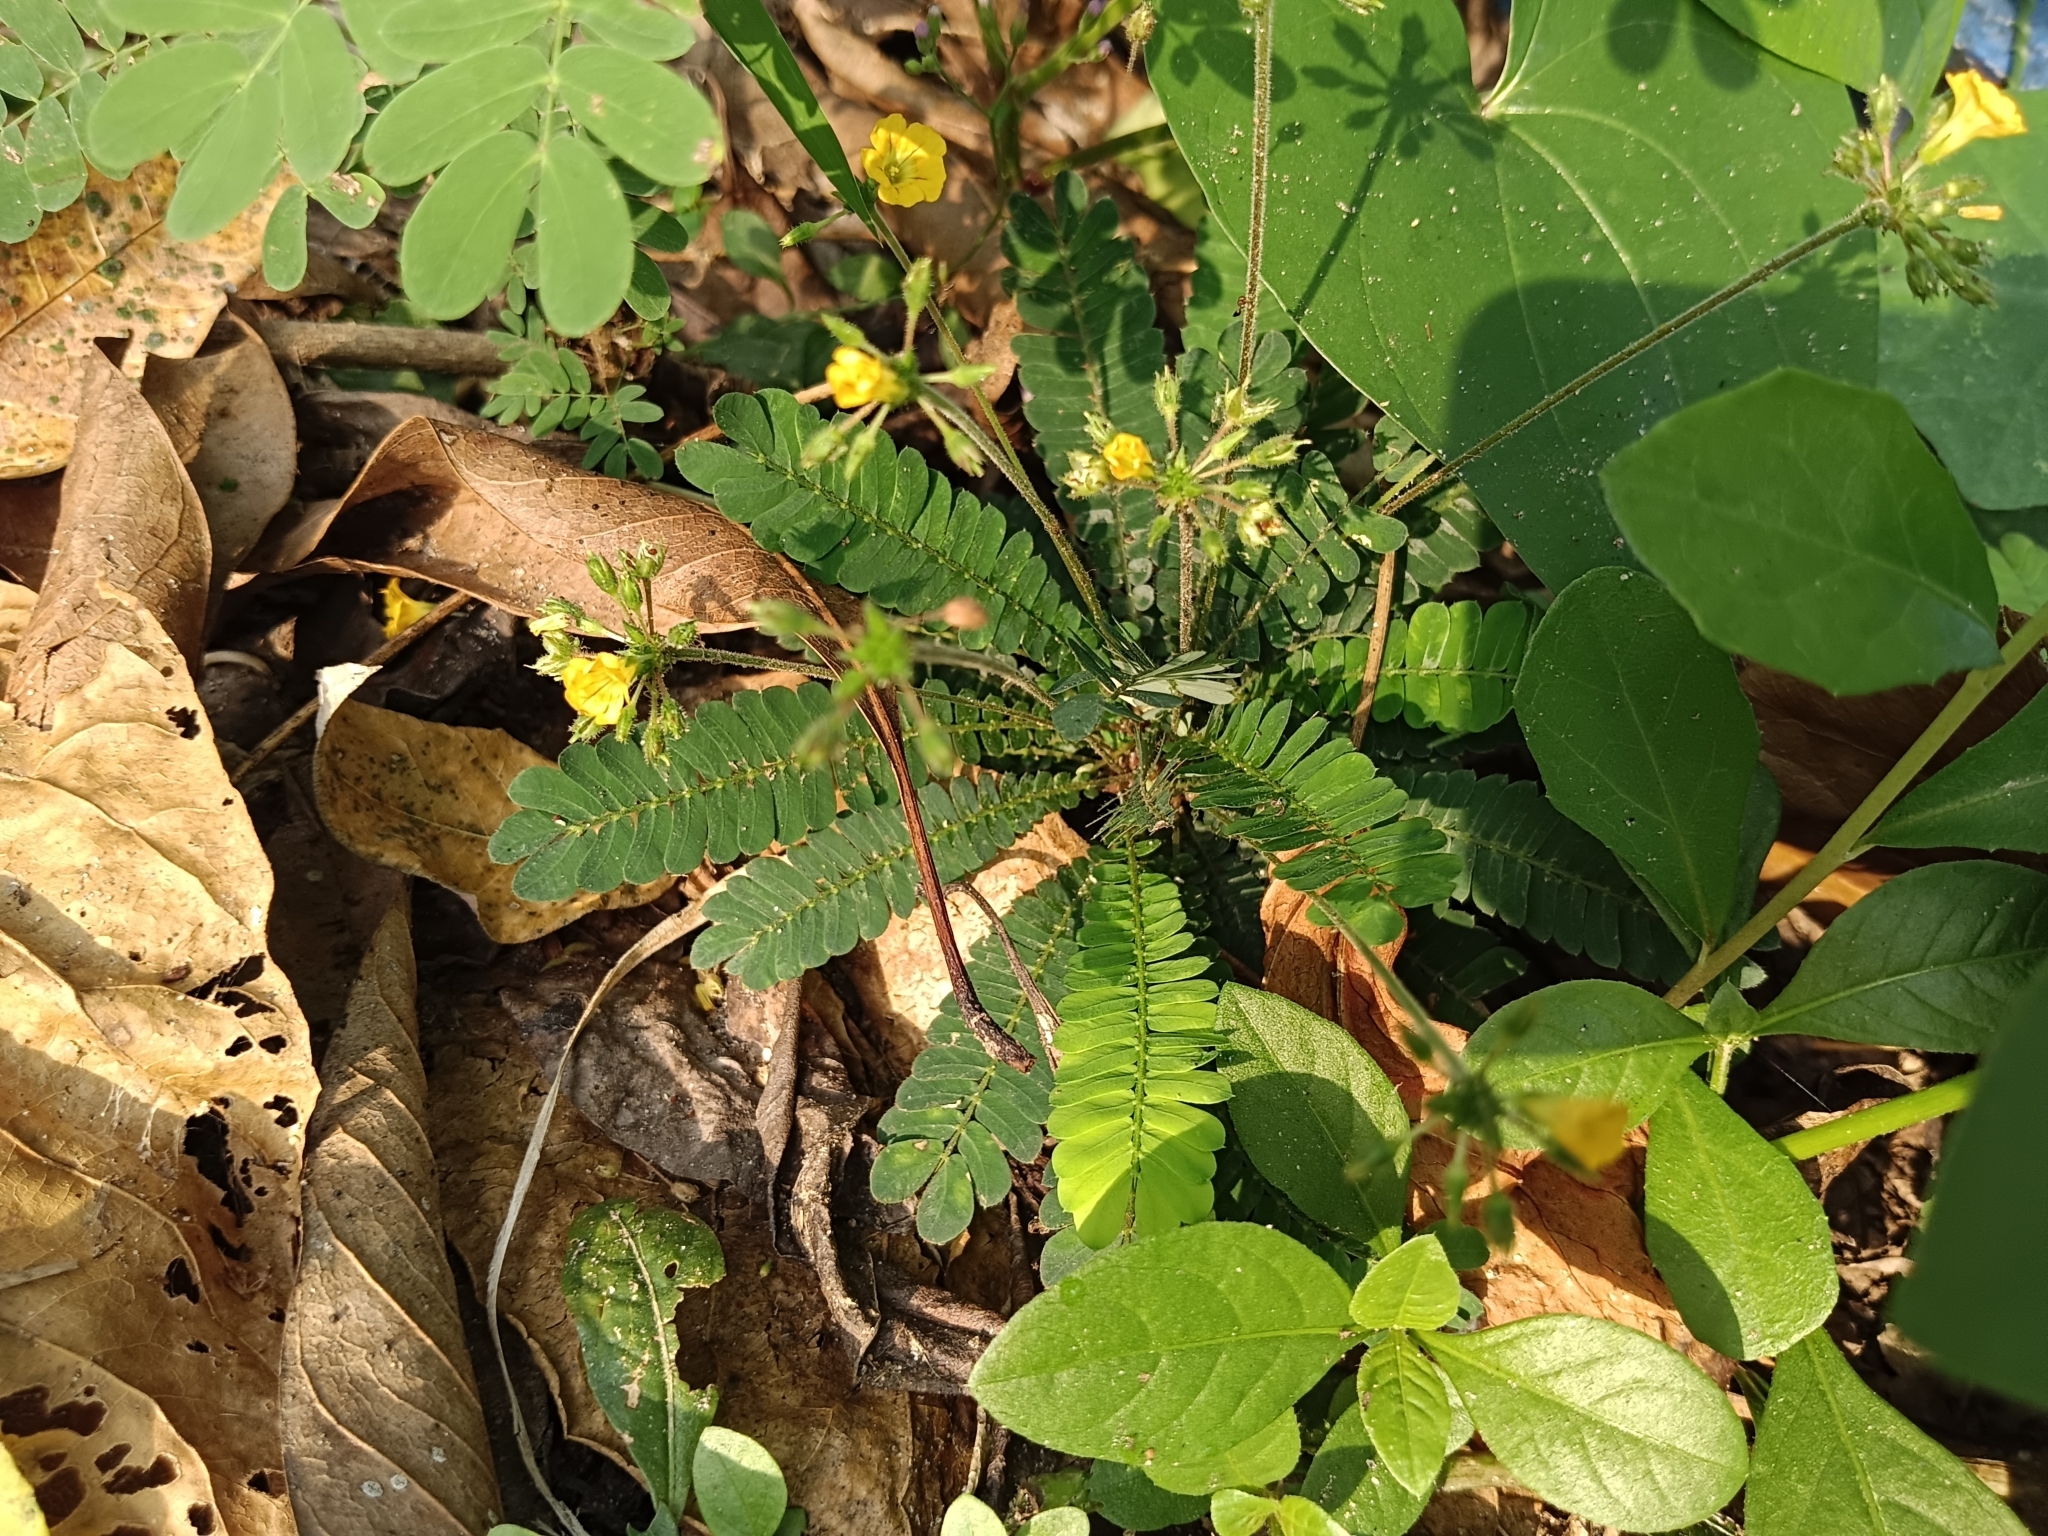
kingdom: Plantae
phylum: Tracheophyta
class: Magnoliopsida
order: Oxalidales
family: Oxalidaceae
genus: Biophytum
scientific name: Biophytum sensitivum
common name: Lifeplant
